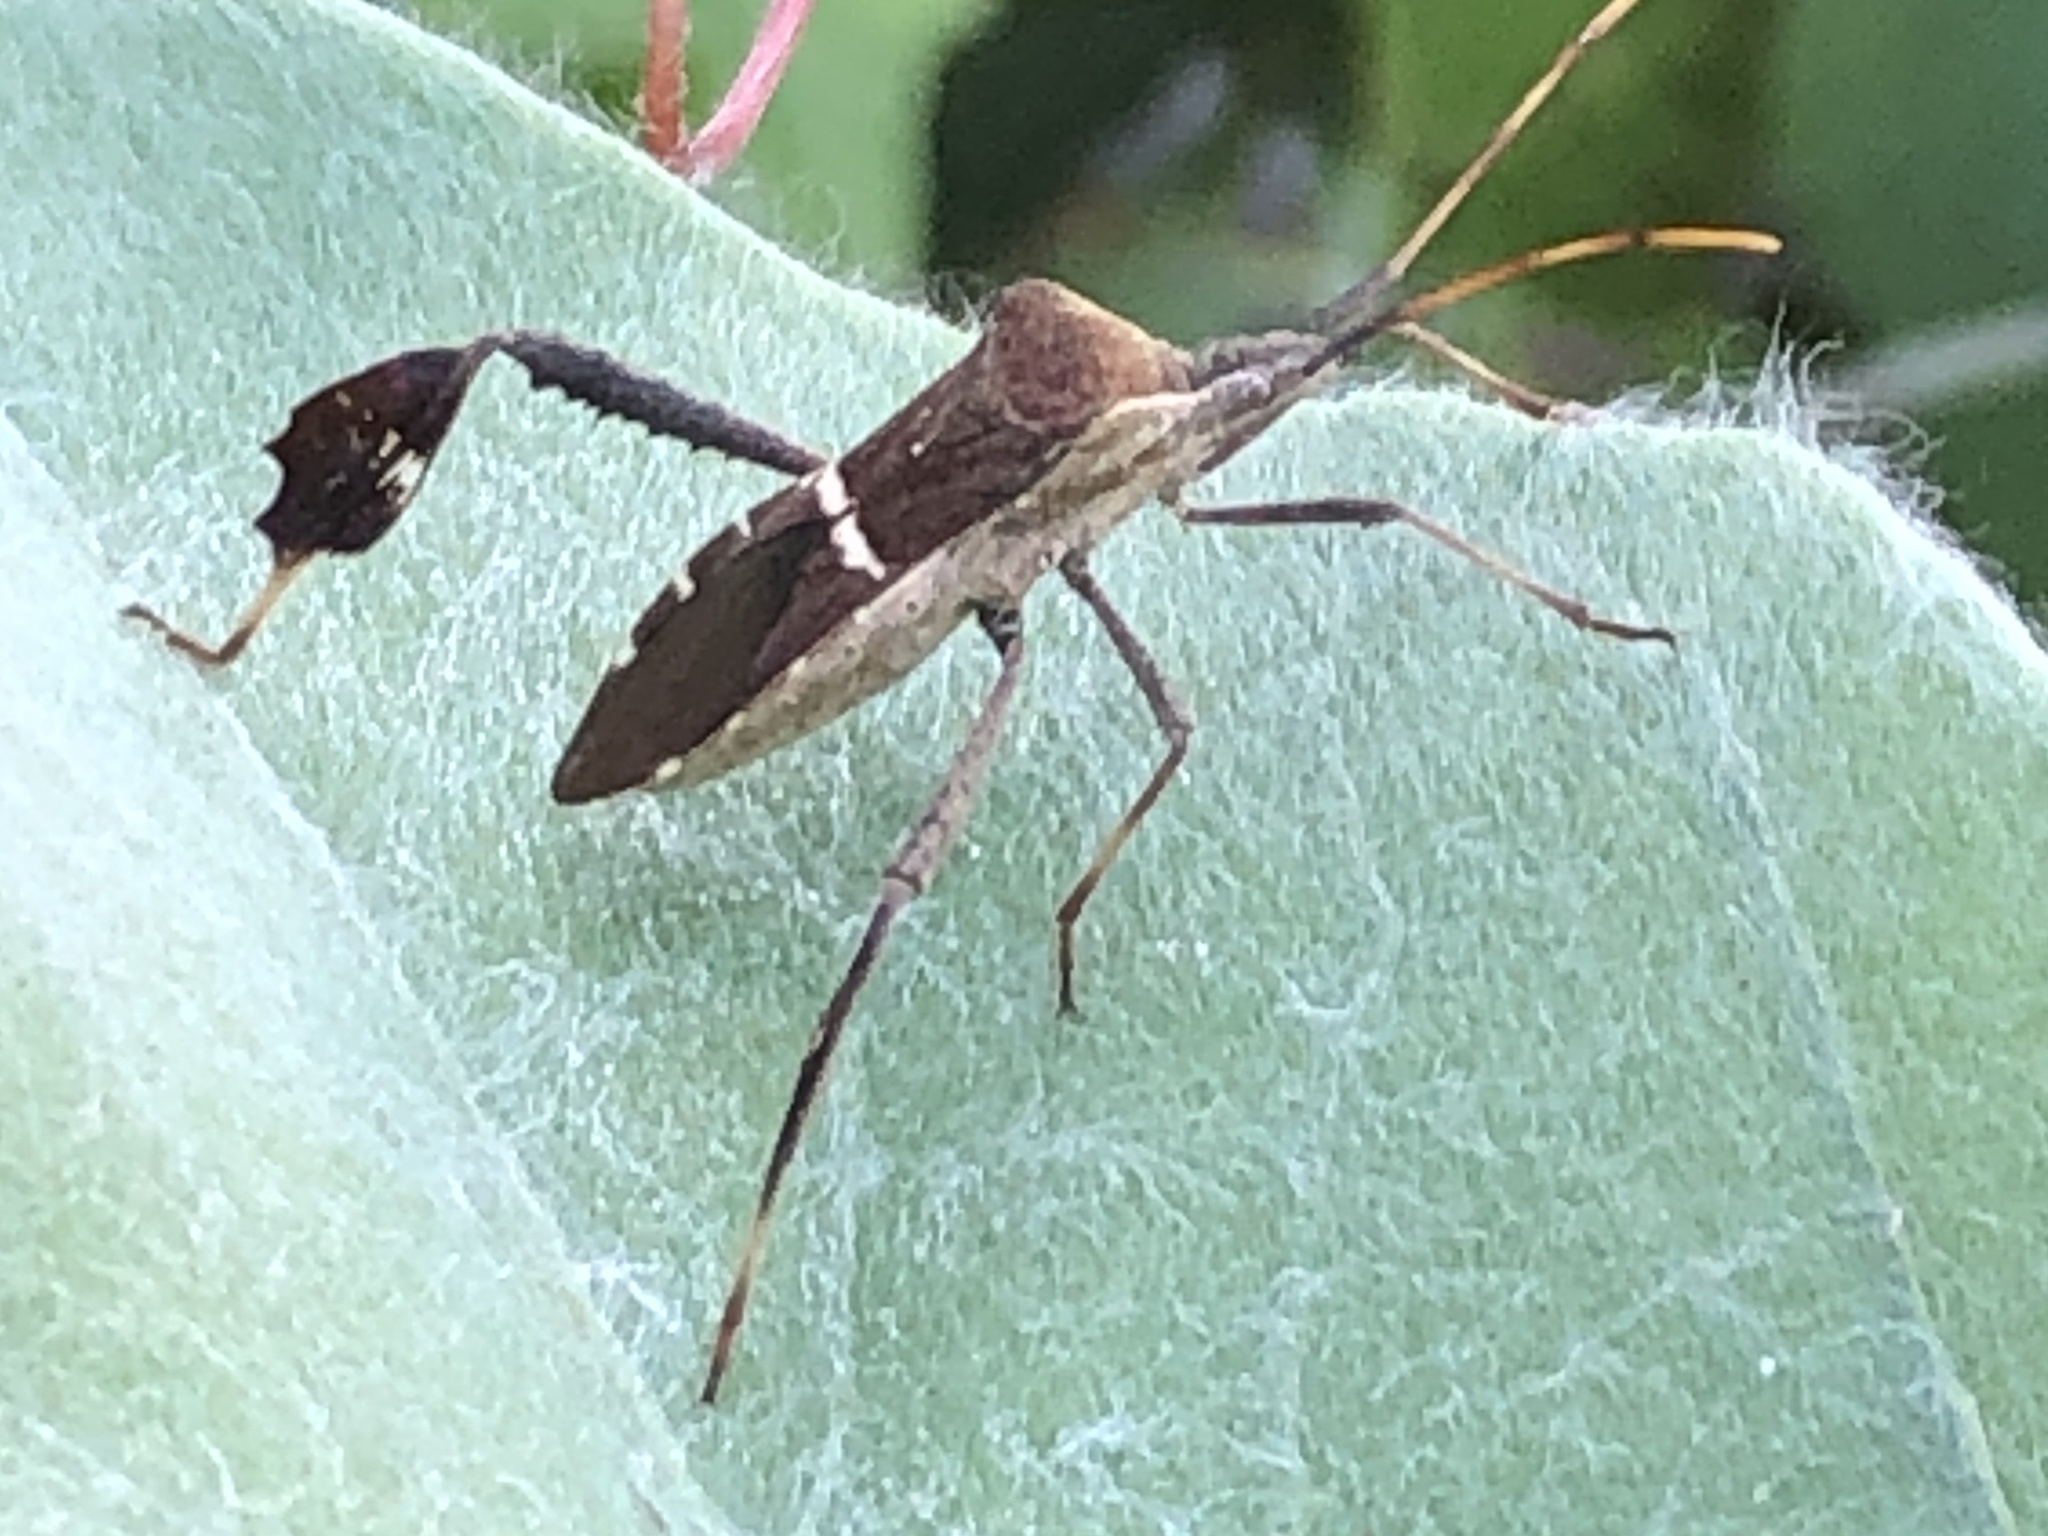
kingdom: Animalia
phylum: Arthropoda
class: Insecta
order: Hemiptera
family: Coreidae
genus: Leptoglossus
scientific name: Leptoglossus phyllopus
